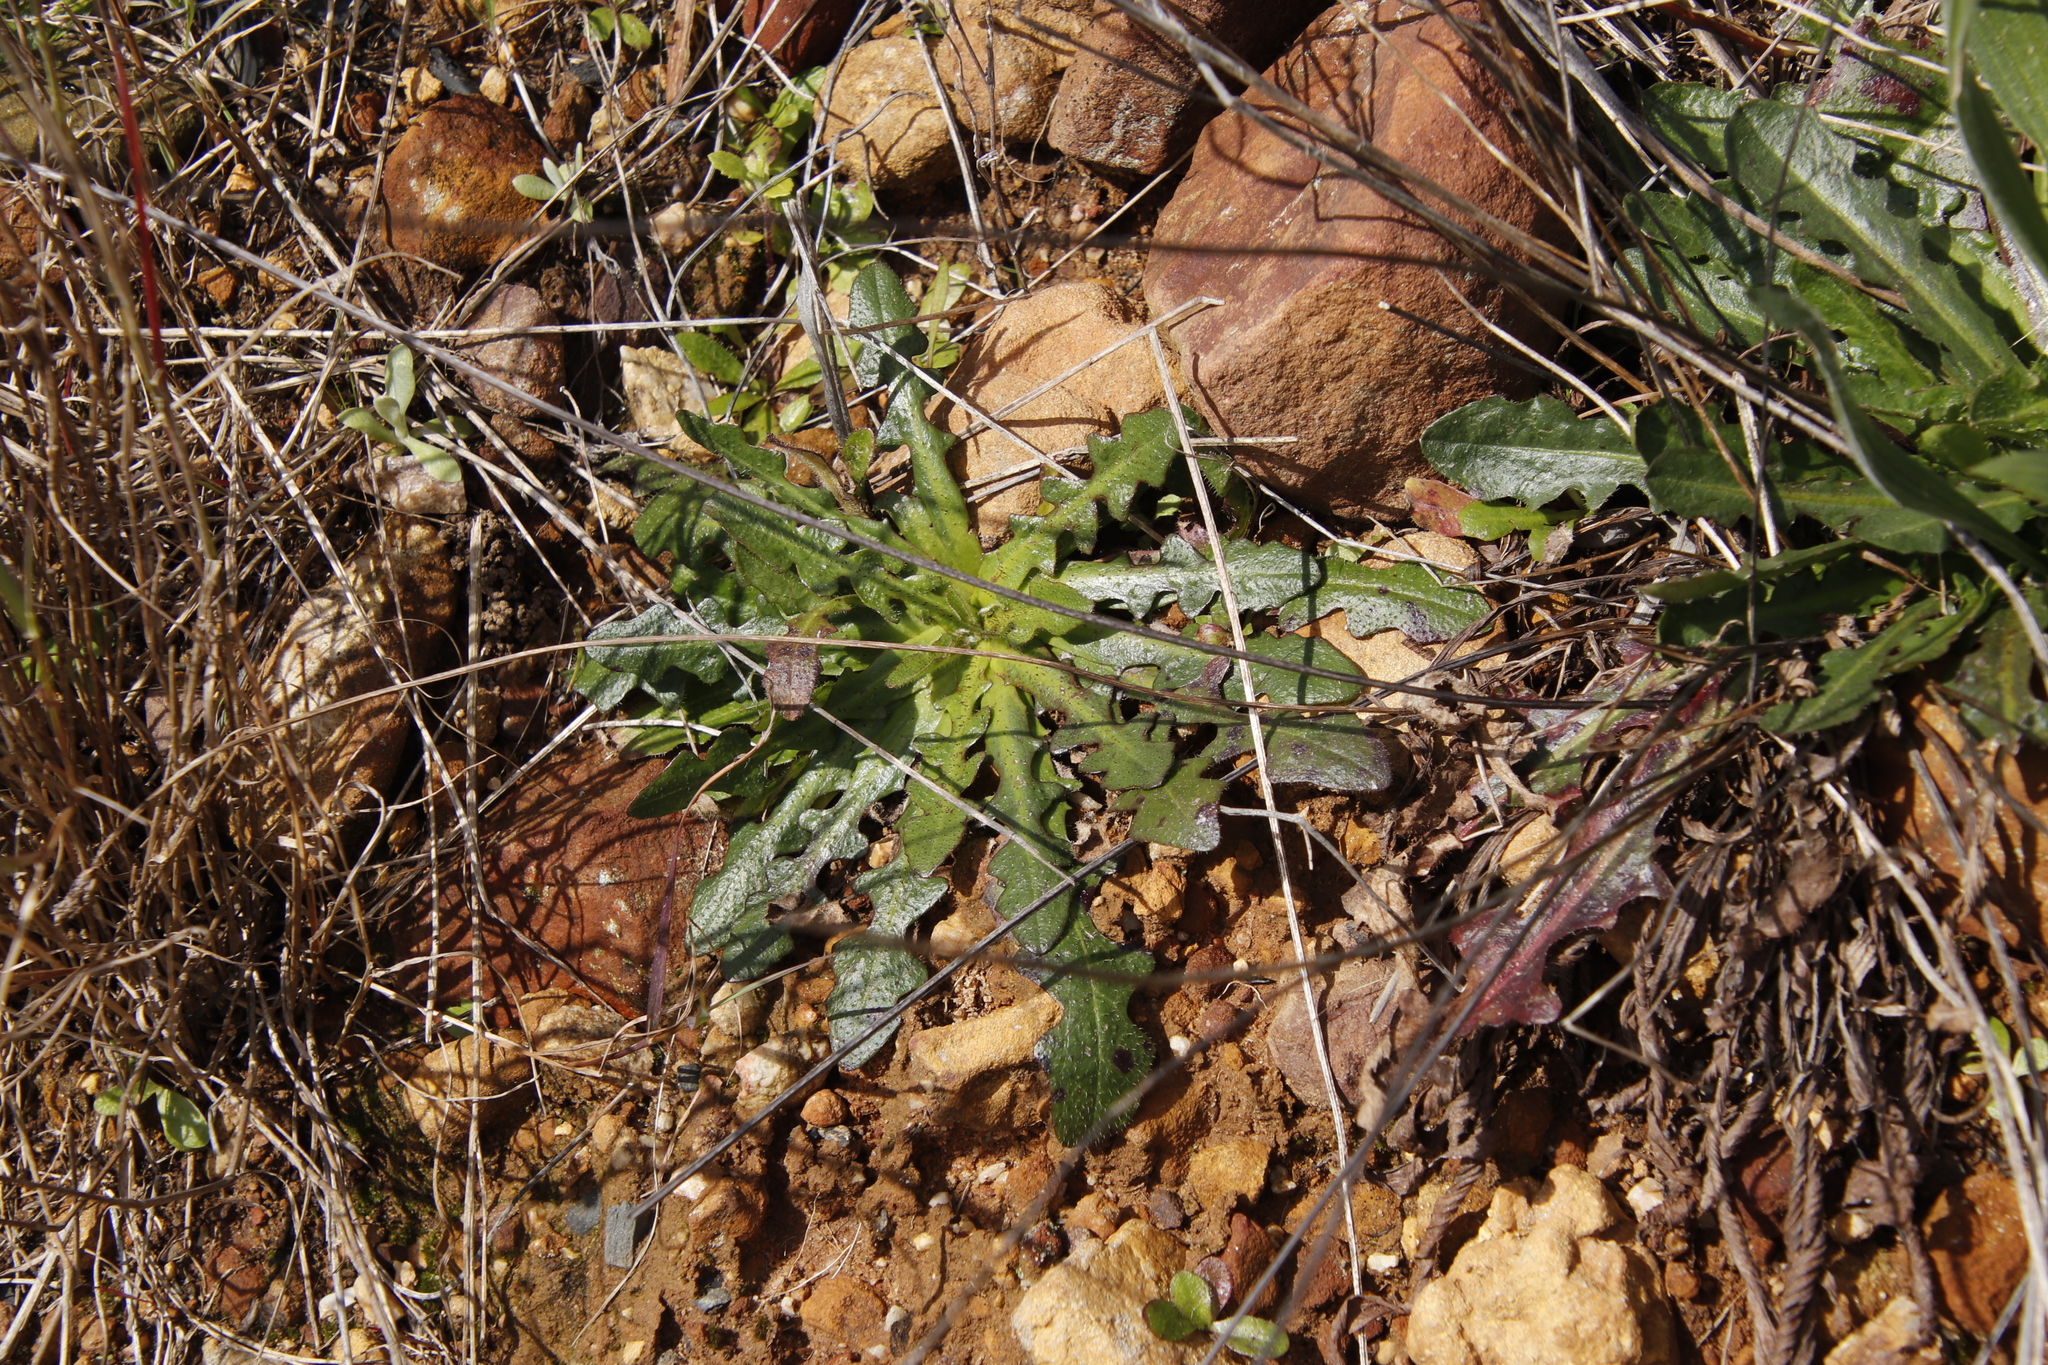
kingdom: Plantae
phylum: Tracheophyta
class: Magnoliopsida
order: Asterales
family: Asteraceae
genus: Hypochaeris
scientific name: Hypochaeris radicata
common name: Flatweed
